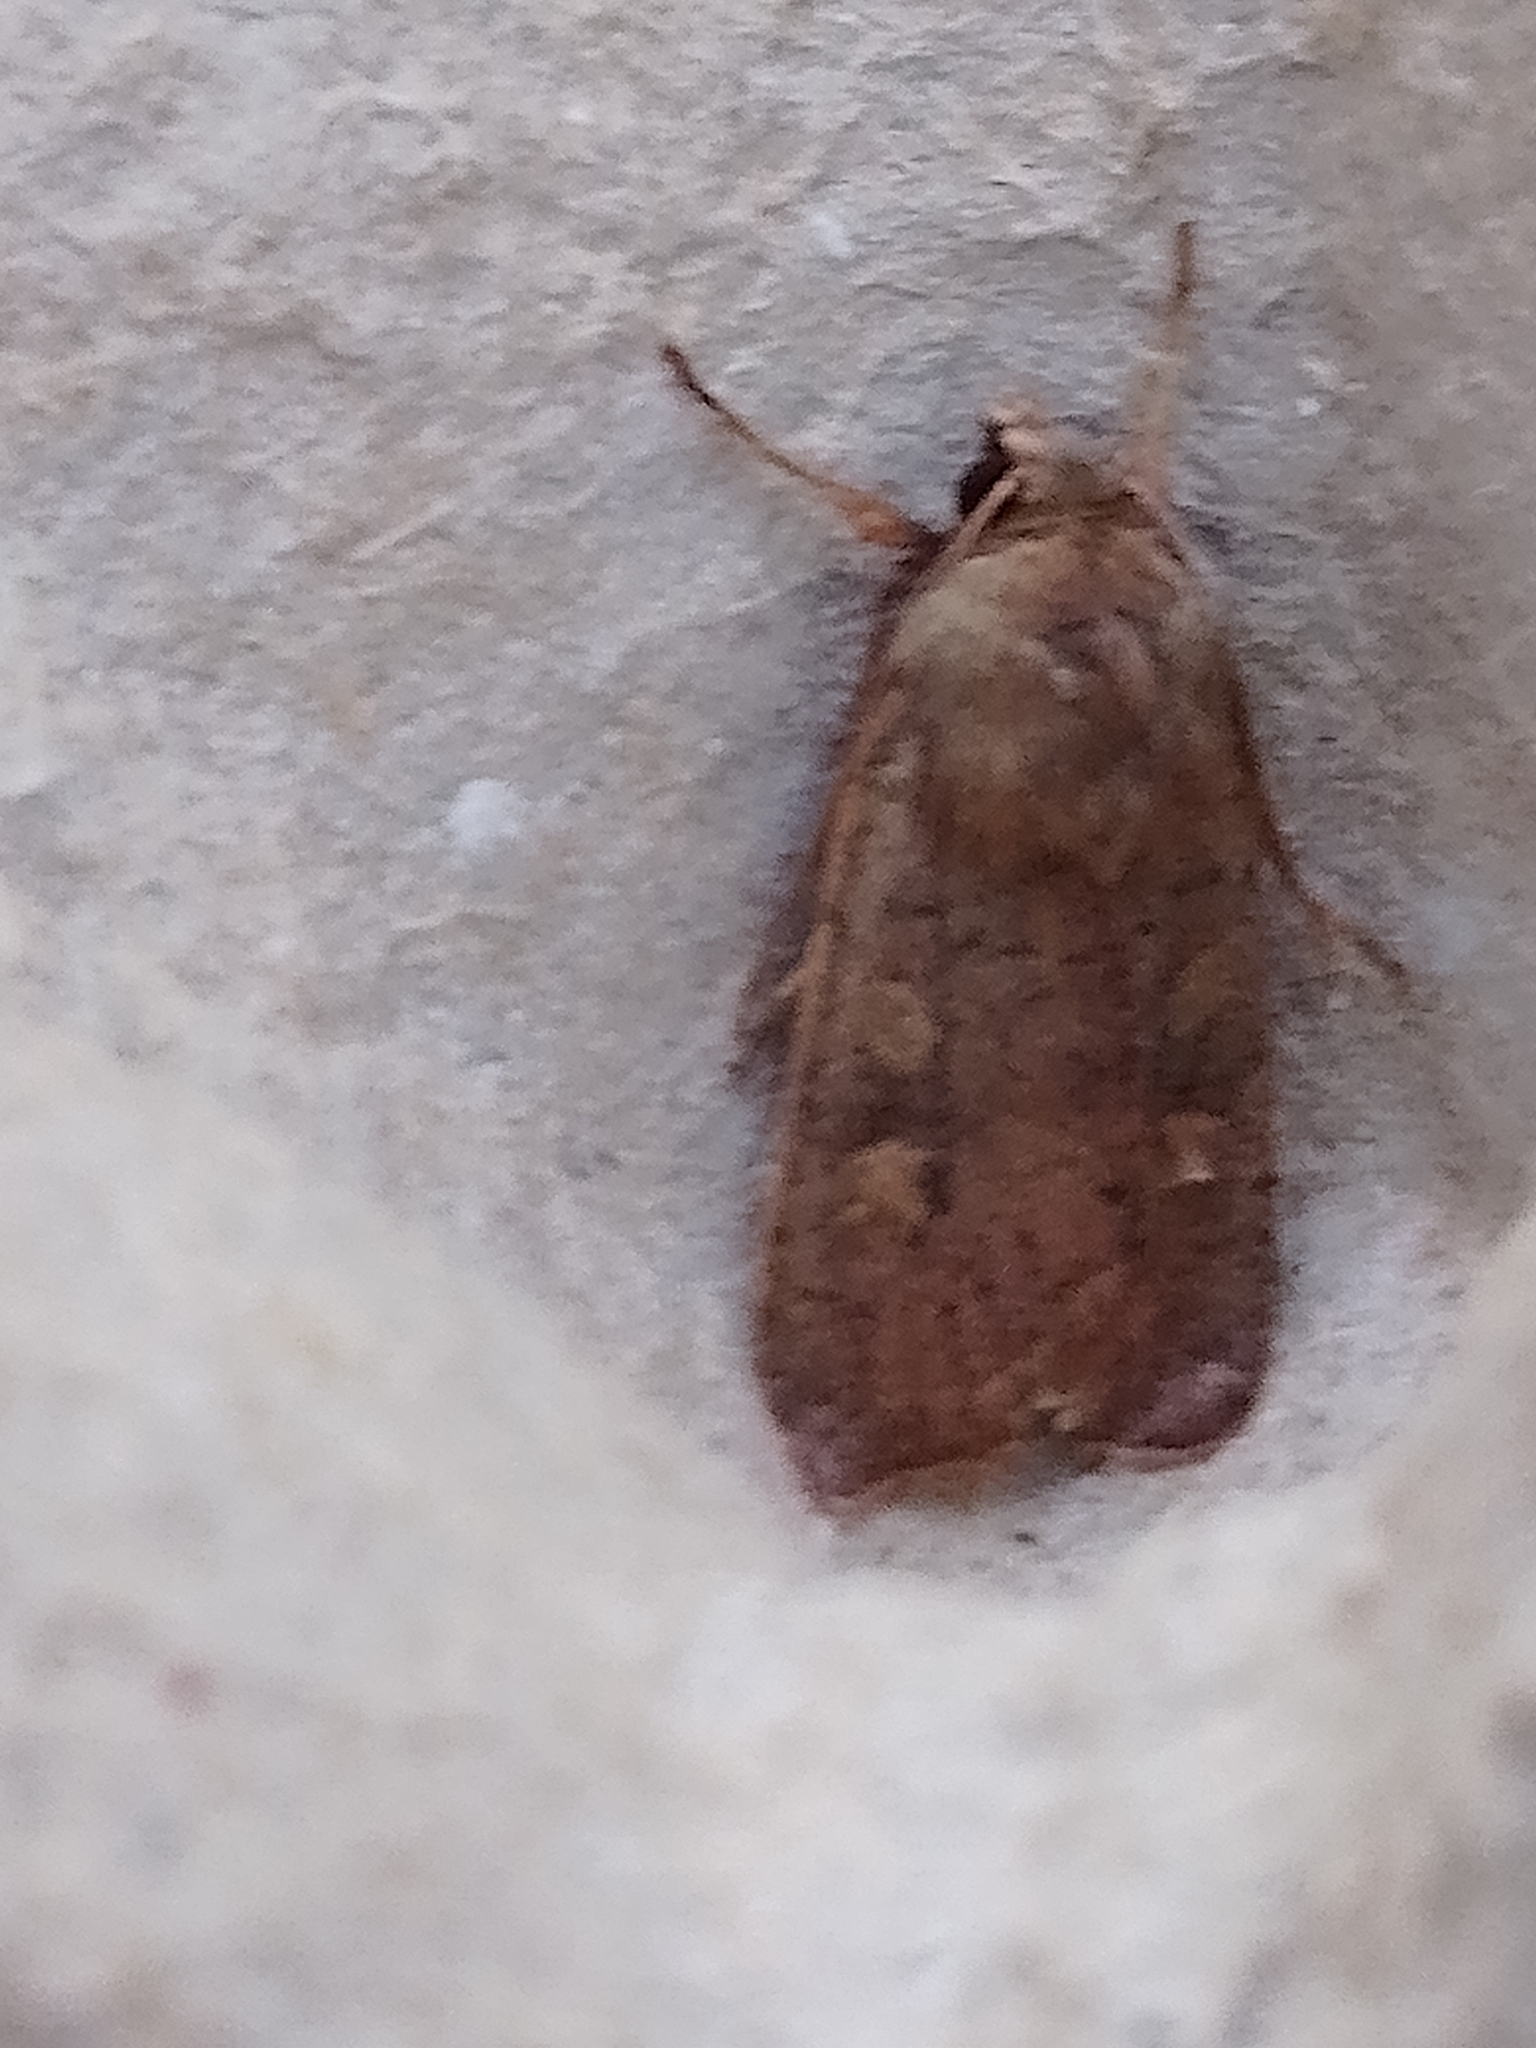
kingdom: Animalia
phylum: Arthropoda
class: Insecta
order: Lepidoptera
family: Noctuidae
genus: Xestia
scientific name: Xestia xanthographa
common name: Square-spot rustic
